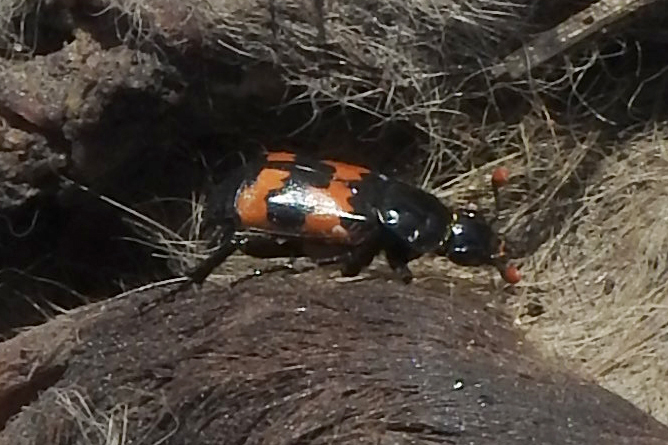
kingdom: Animalia
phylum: Arthropoda
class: Insecta
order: Coleoptera
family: Staphylinidae
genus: Nicrophorus
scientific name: Nicrophorus marginatus
